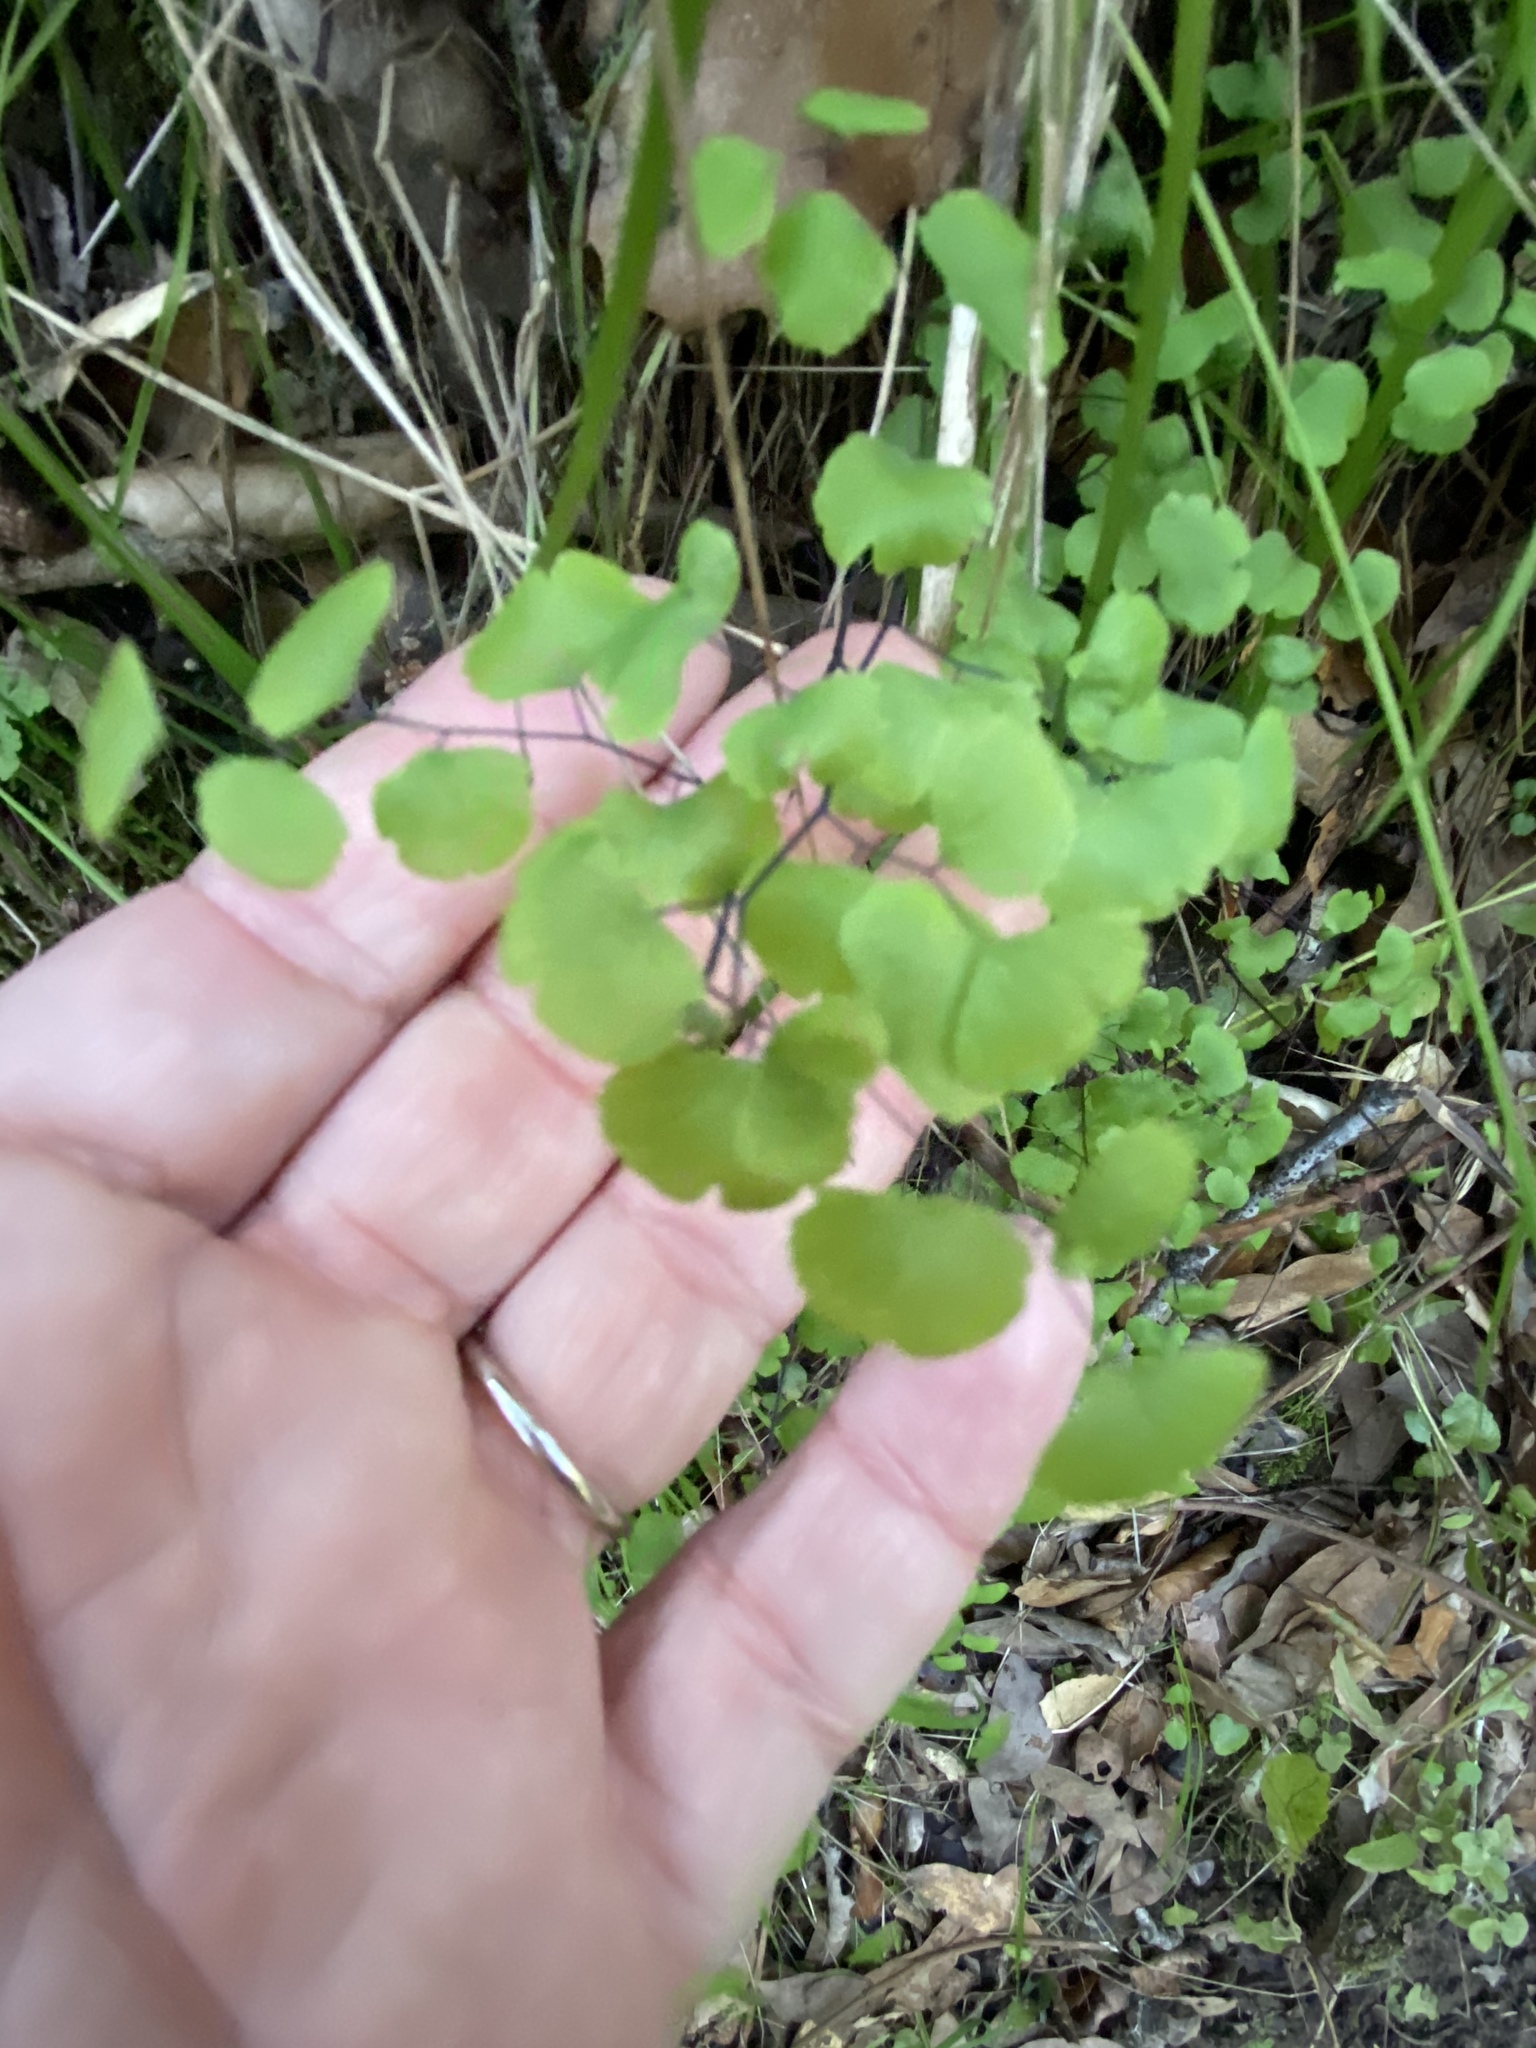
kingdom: Plantae
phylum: Tracheophyta
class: Polypodiopsida
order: Polypodiales
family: Pteridaceae
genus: Adiantum
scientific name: Adiantum jordanii
